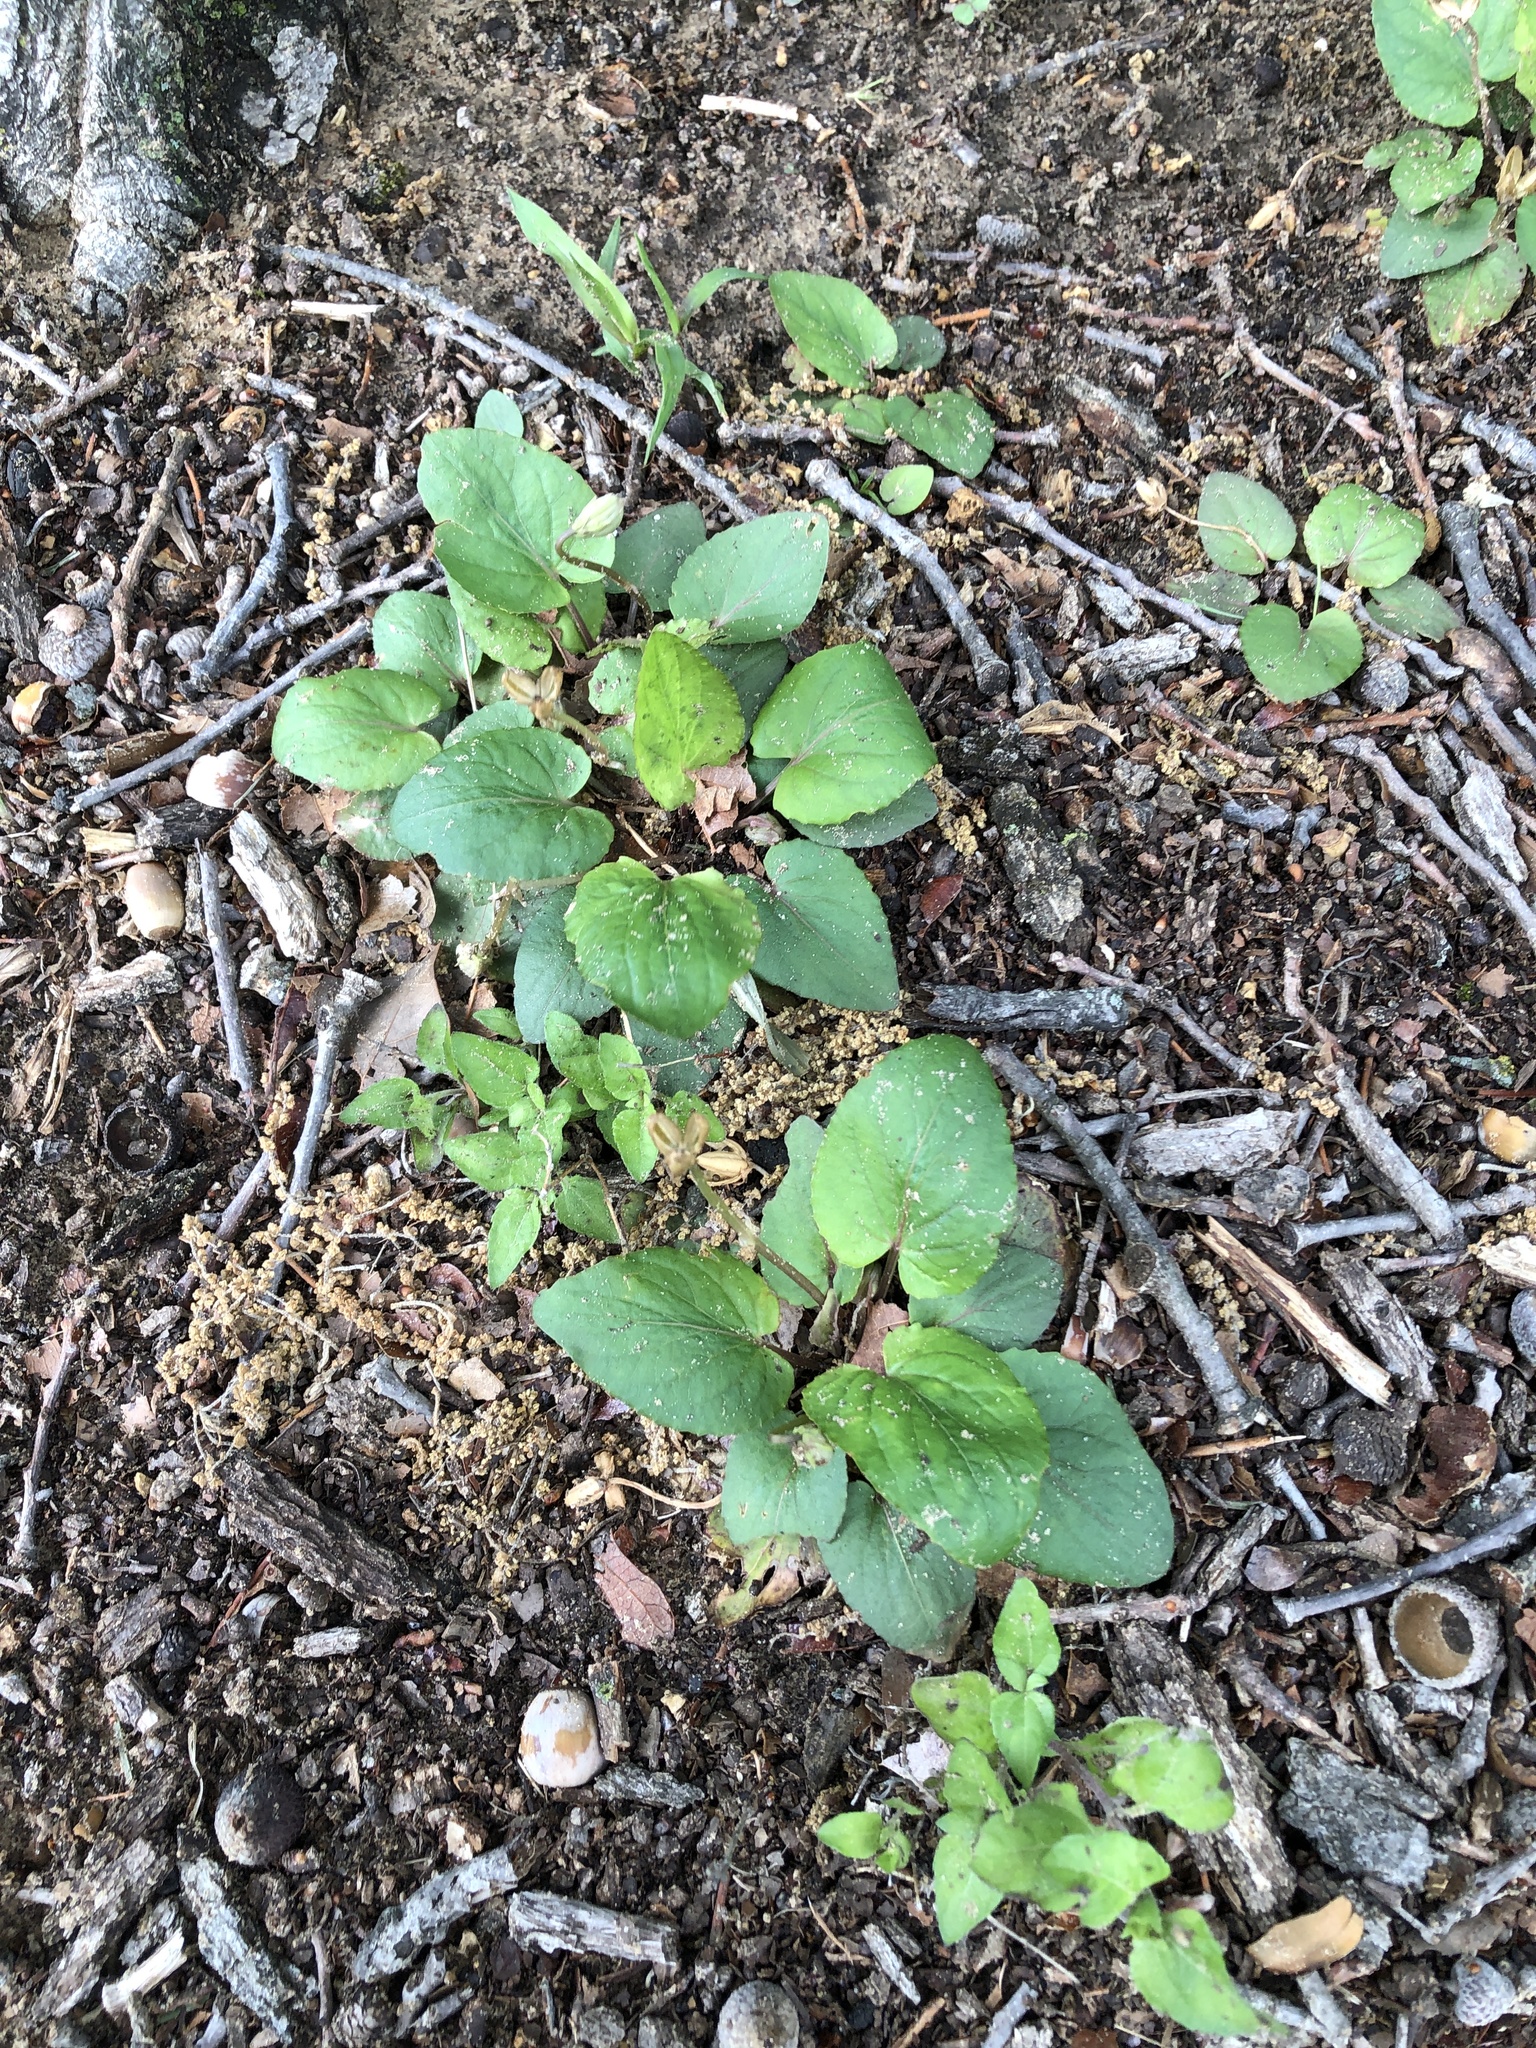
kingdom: Plantae
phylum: Tracheophyta
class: Magnoliopsida
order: Malpighiales
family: Violaceae
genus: Viola
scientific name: Viola villosa
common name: Carolina violet
